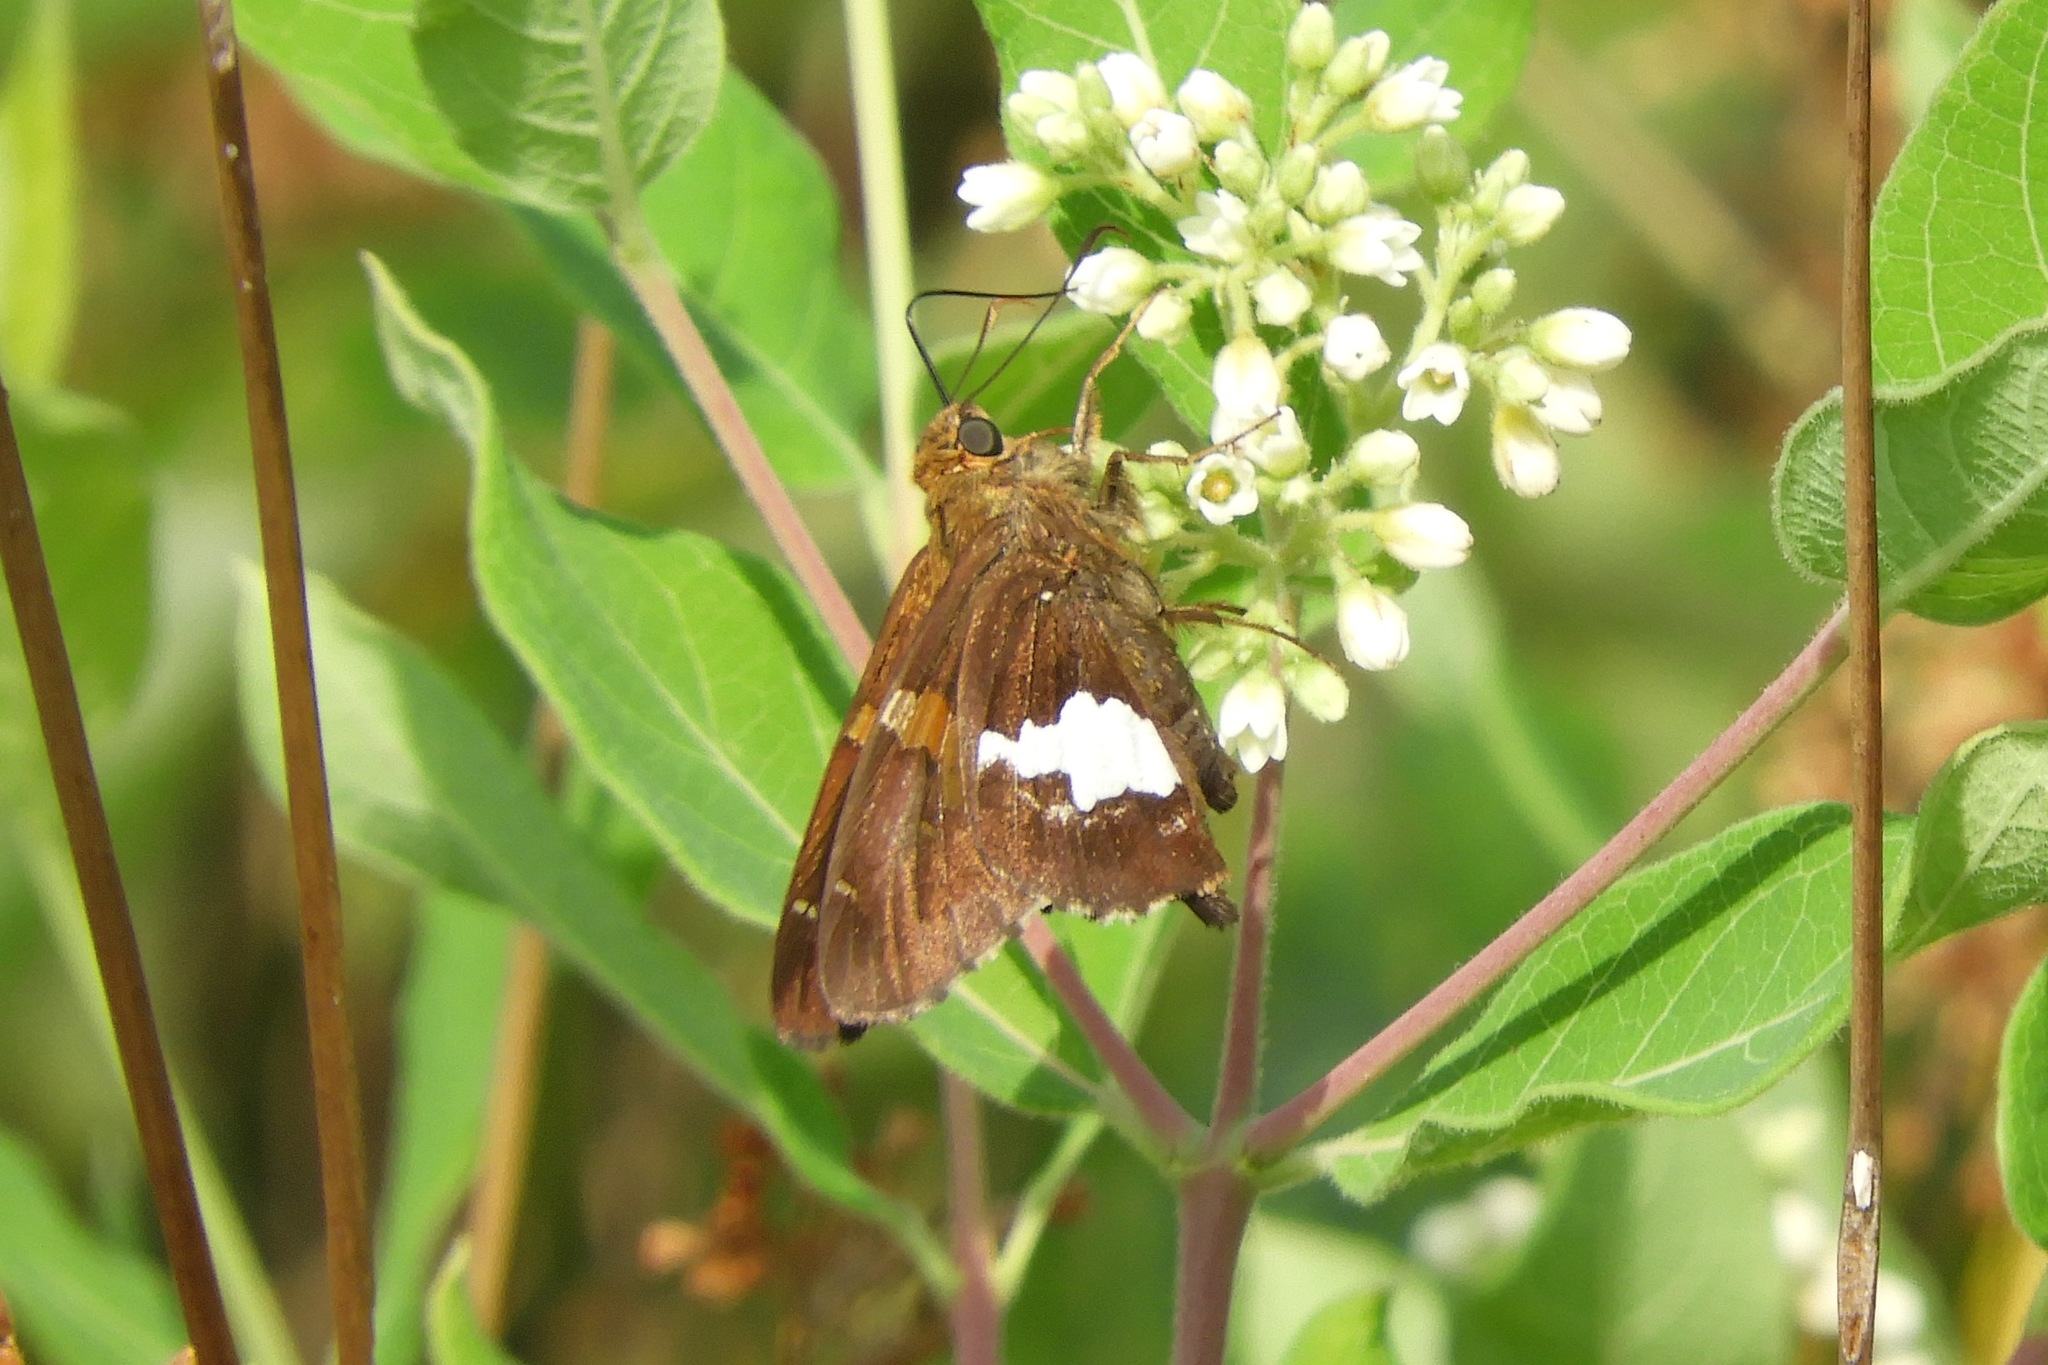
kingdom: Animalia
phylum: Arthropoda
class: Insecta
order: Lepidoptera
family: Hesperiidae
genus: Epargyreus
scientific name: Epargyreus clarus
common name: Silver-spotted skipper
